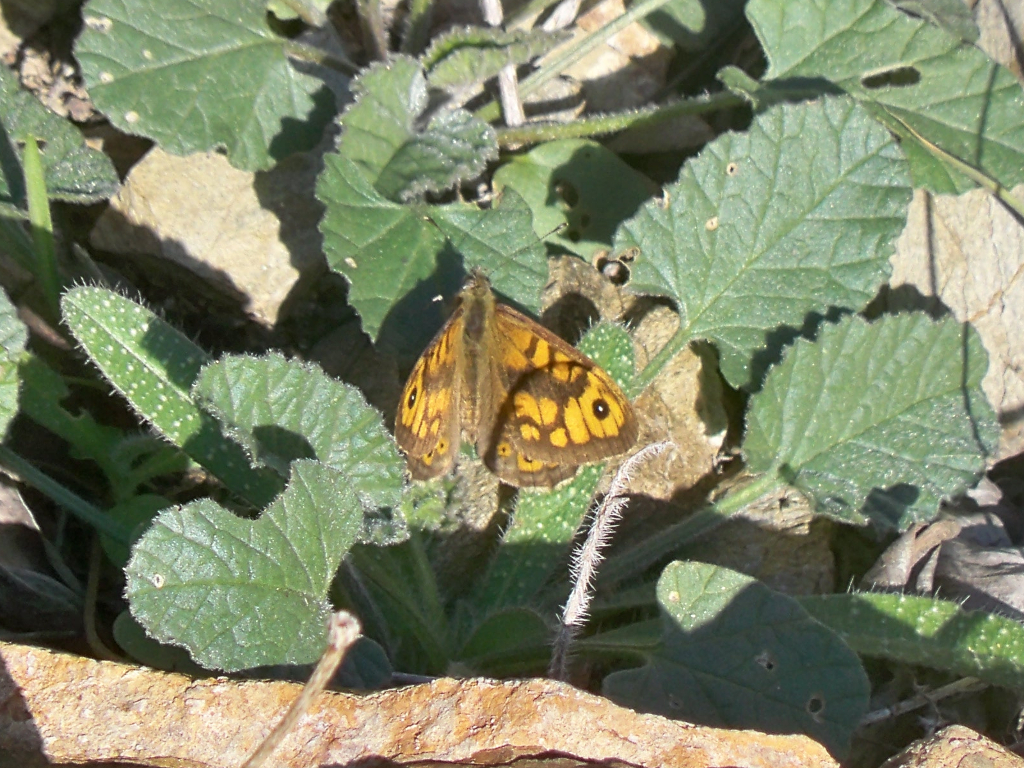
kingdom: Animalia
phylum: Arthropoda
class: Insecta
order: Lepidoptera
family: Nymphalidae
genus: Pararge
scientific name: Pararge Lasiommata megera
